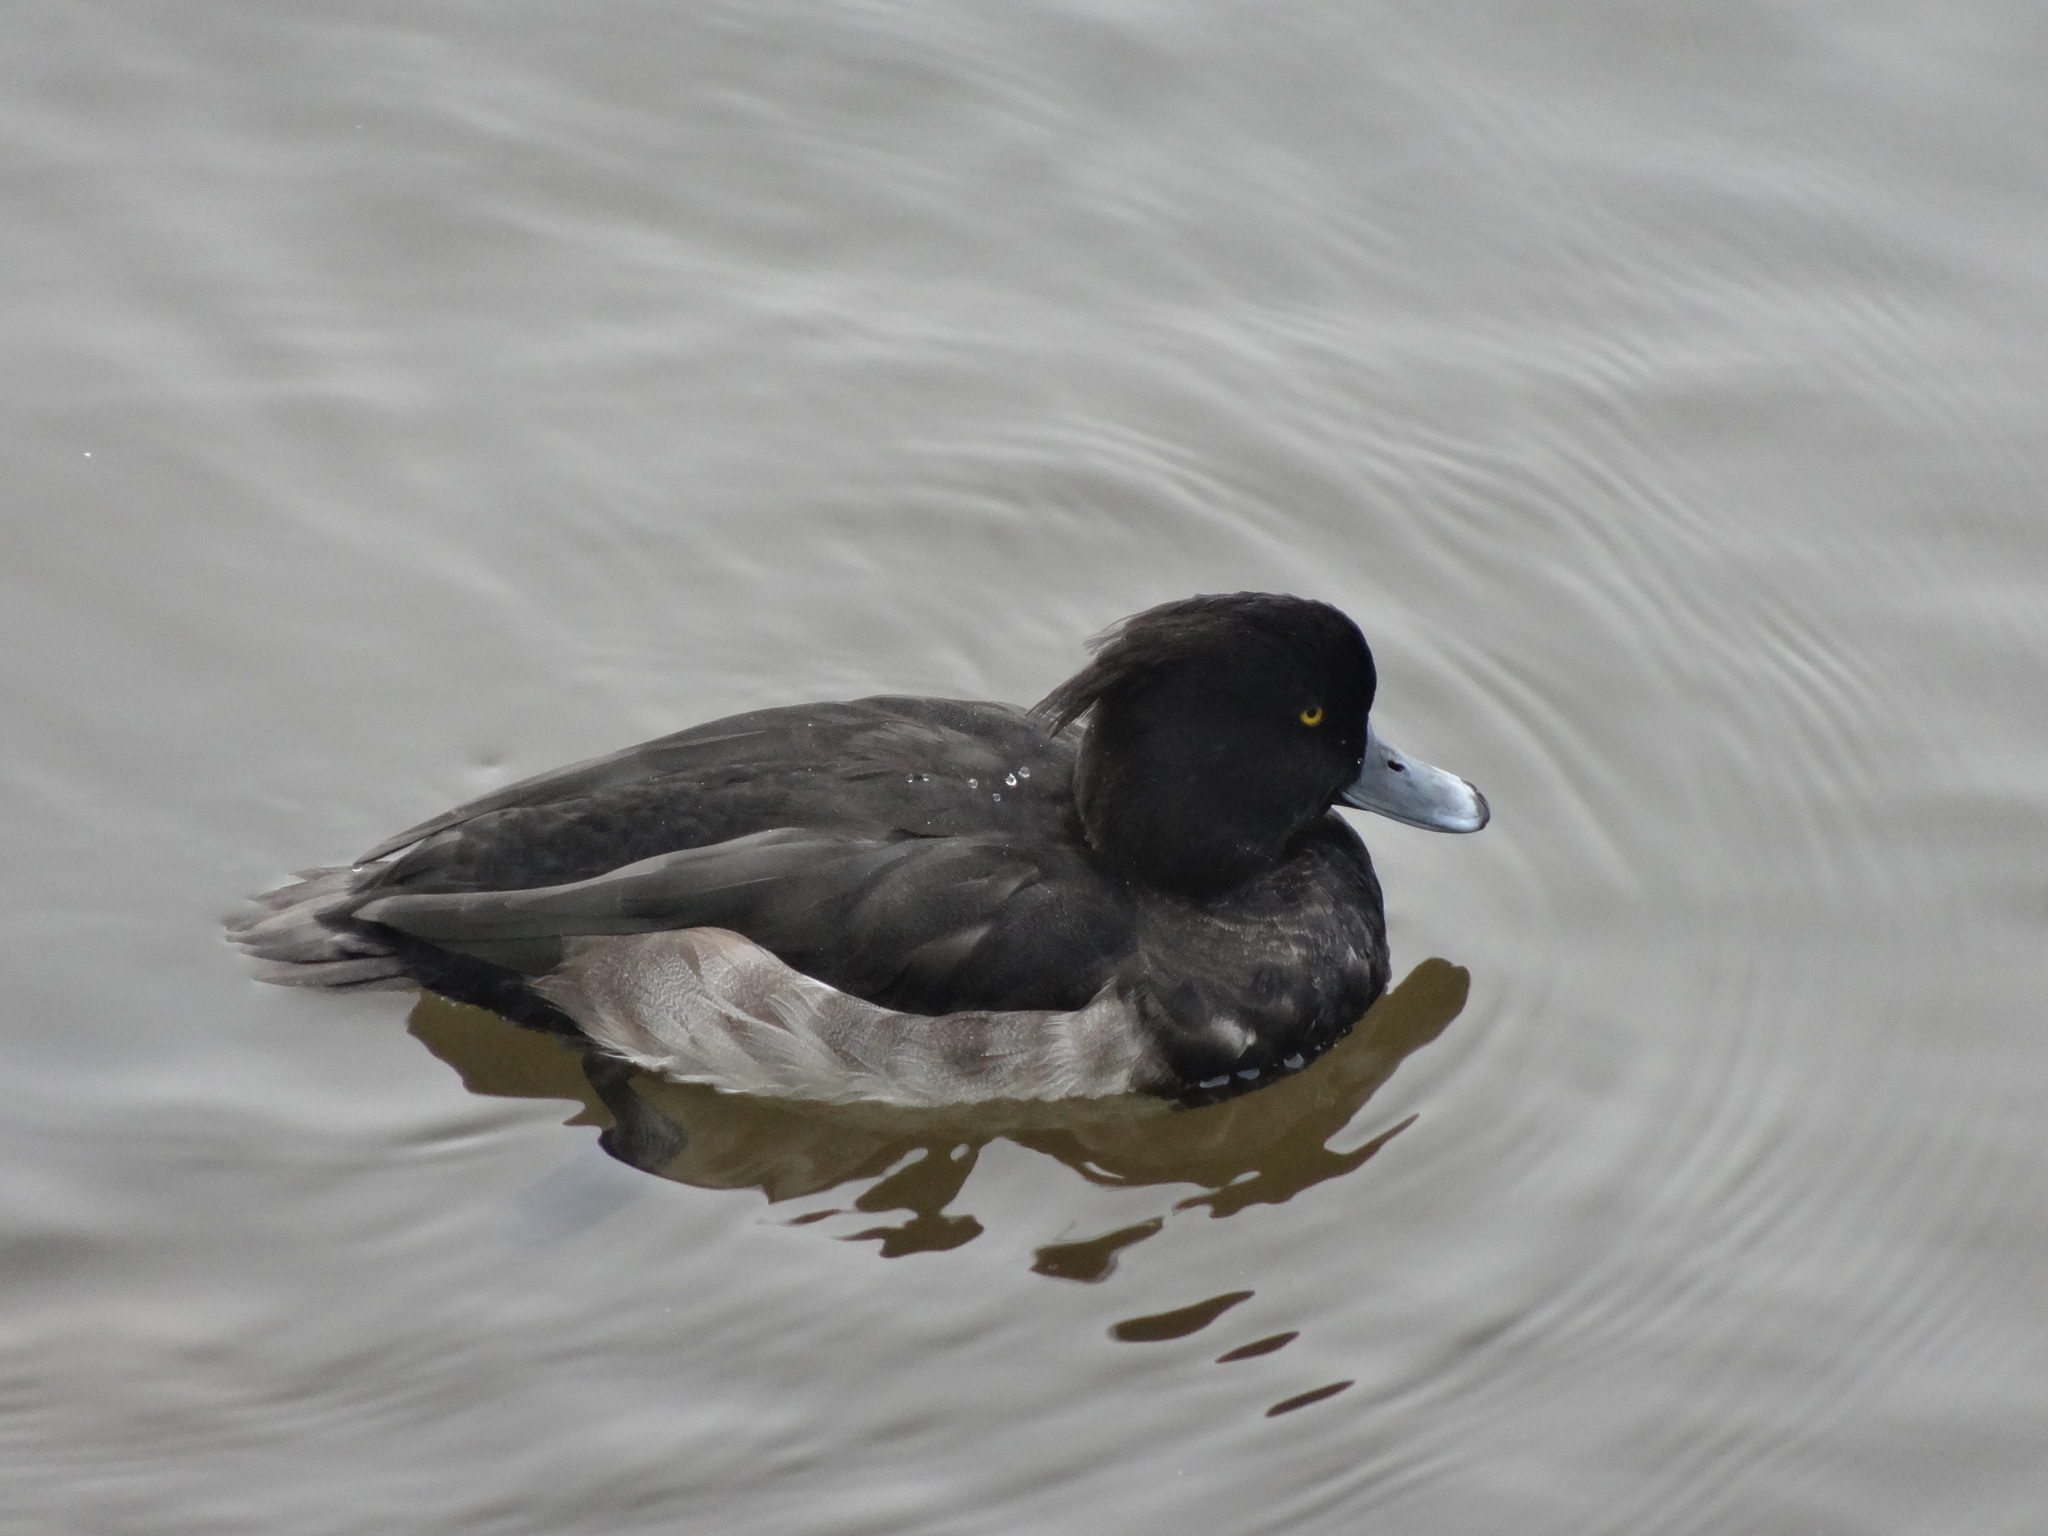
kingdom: Animalia
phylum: Chordata
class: Aves
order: Anseriformes
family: Anatidae
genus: Aythya
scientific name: Aythya fuligula
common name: Tufted duck
